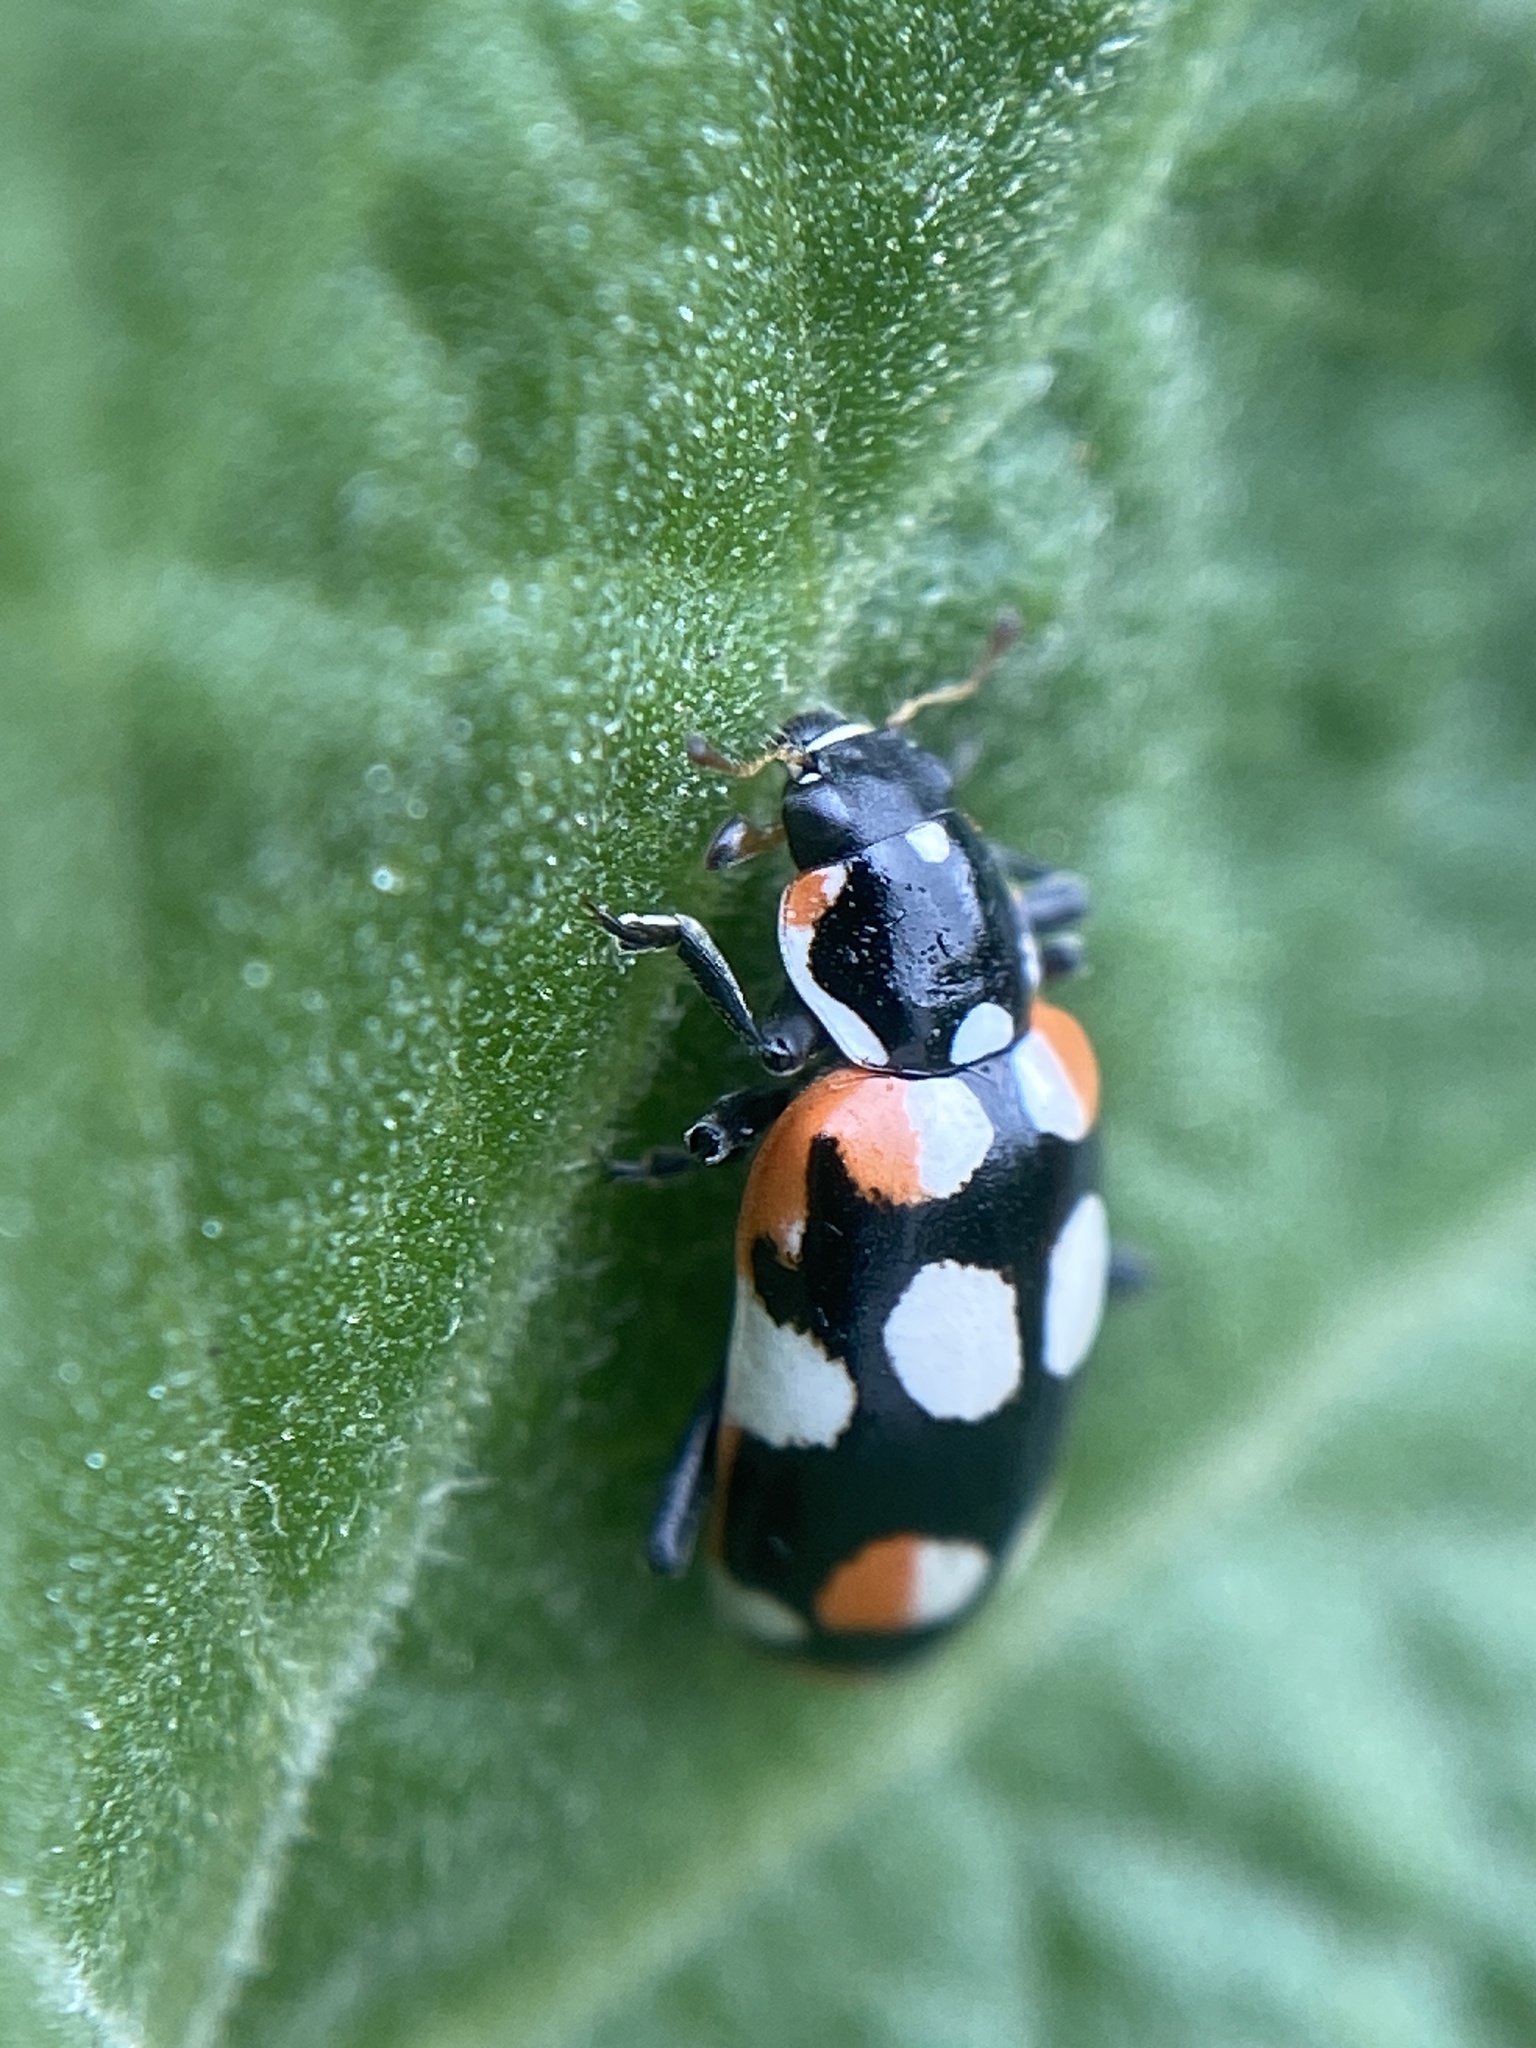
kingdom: Animalia
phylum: Arthropoda
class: Insecta
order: Coleoptera
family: Coccinellidae
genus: Eriopis
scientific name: Eriopis connexa
